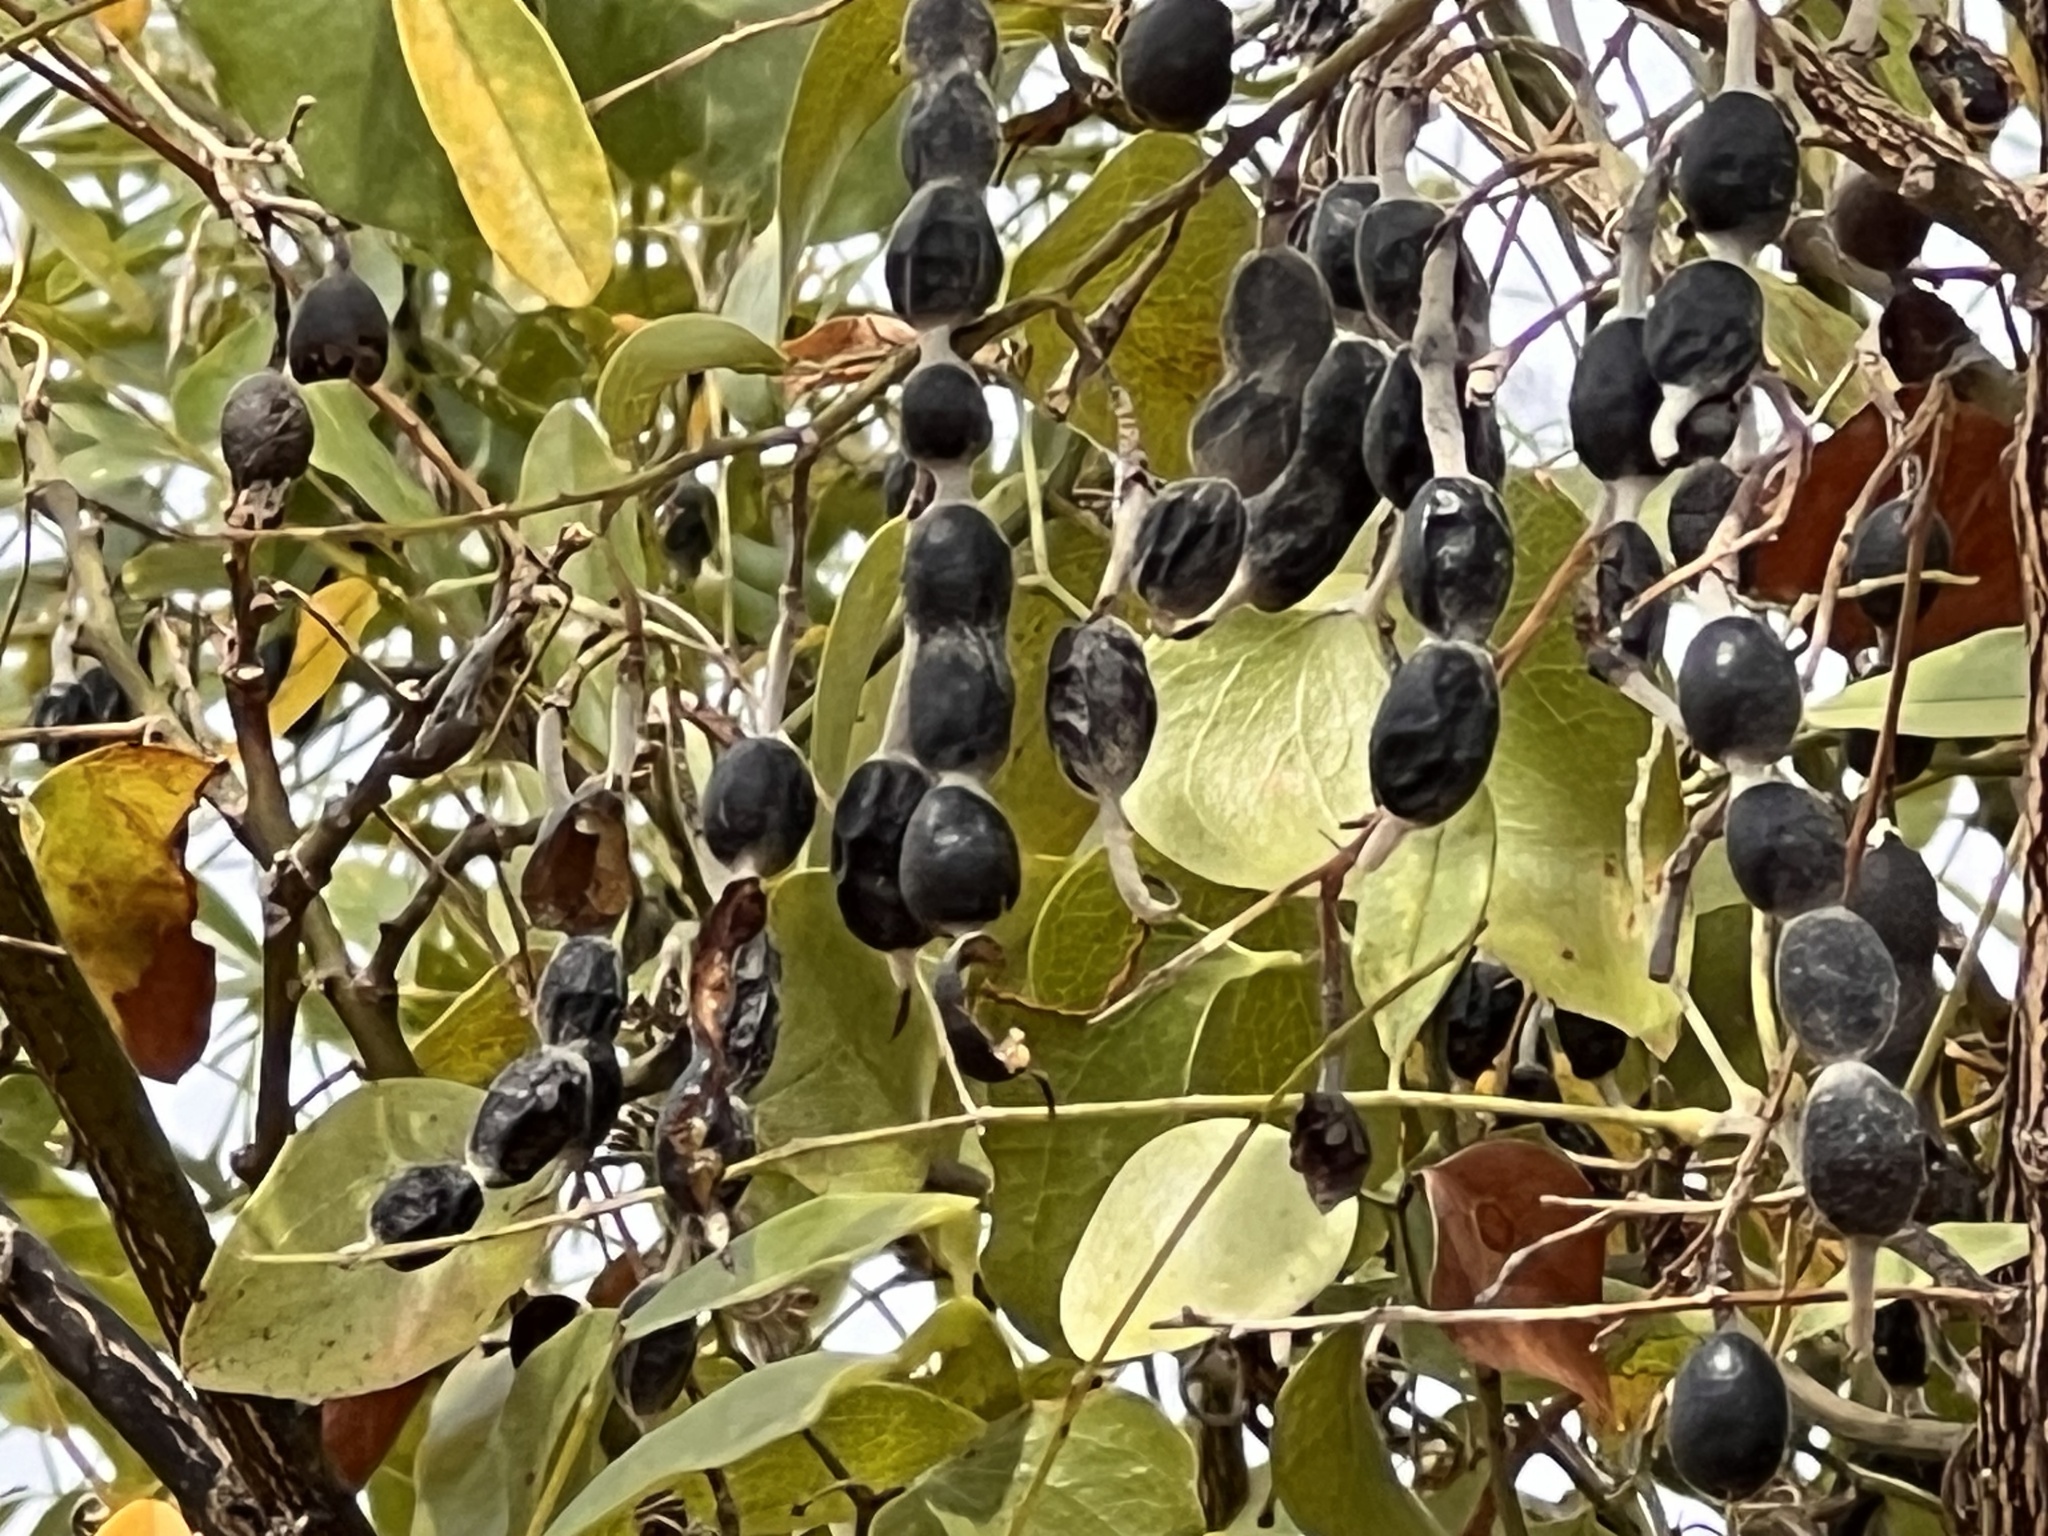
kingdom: Plantae
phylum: Tracheophyta
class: Magnoliopsida
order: Fabales
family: Fabaceae
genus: Styphnolobium
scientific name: Styphnolobium affine
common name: Texas sophora
